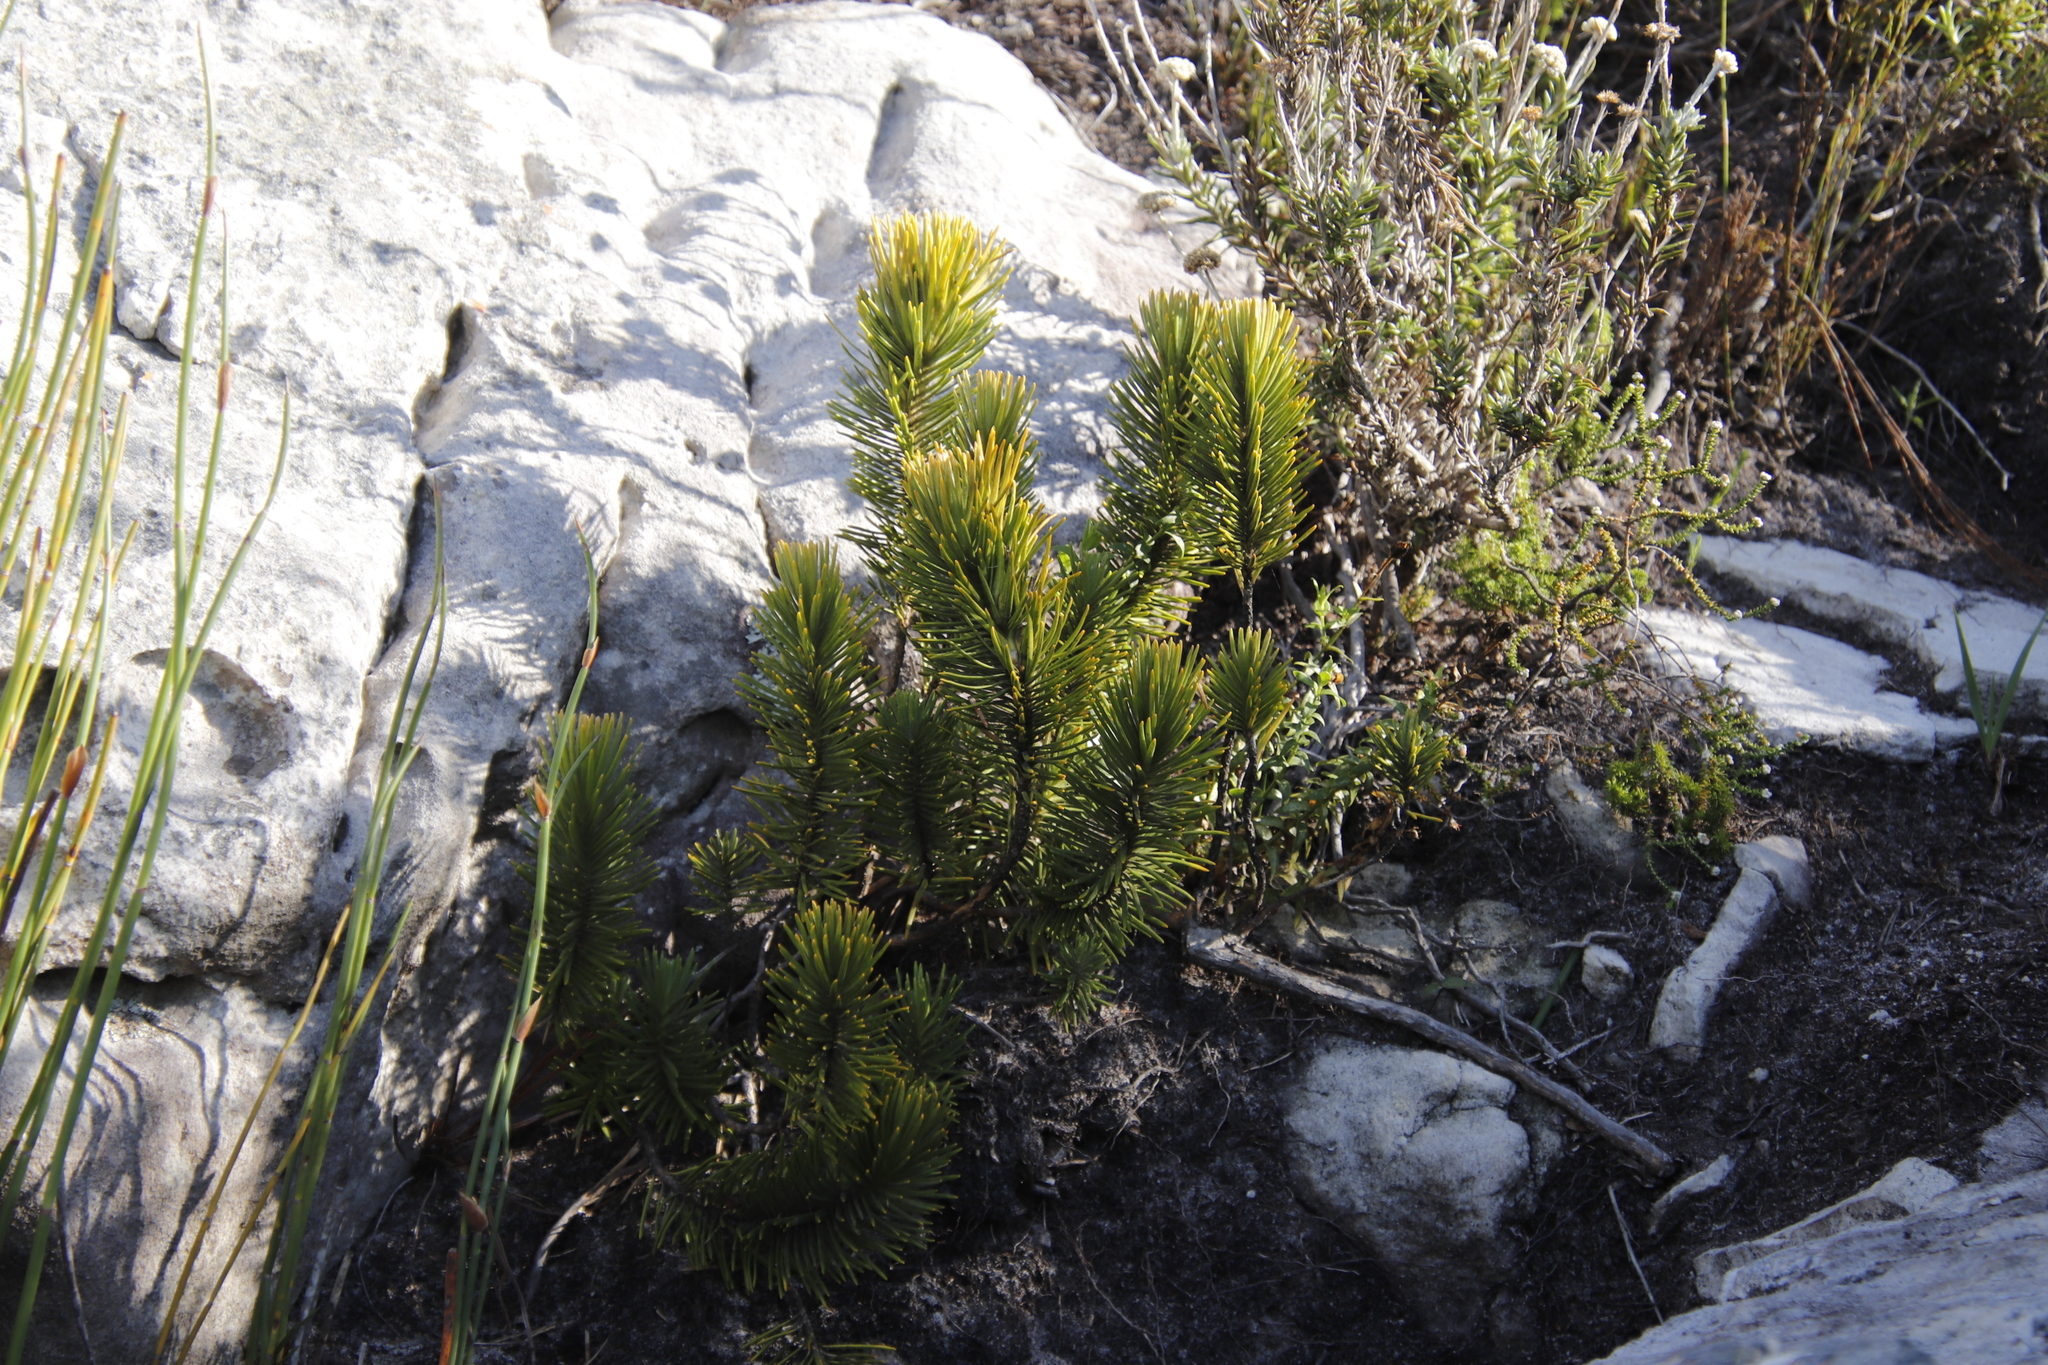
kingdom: Plantae
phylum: Tracheophyta
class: Magnoliopsida
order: Lamiales
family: Stilbaceae
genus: Retzia
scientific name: Retzia capensis
